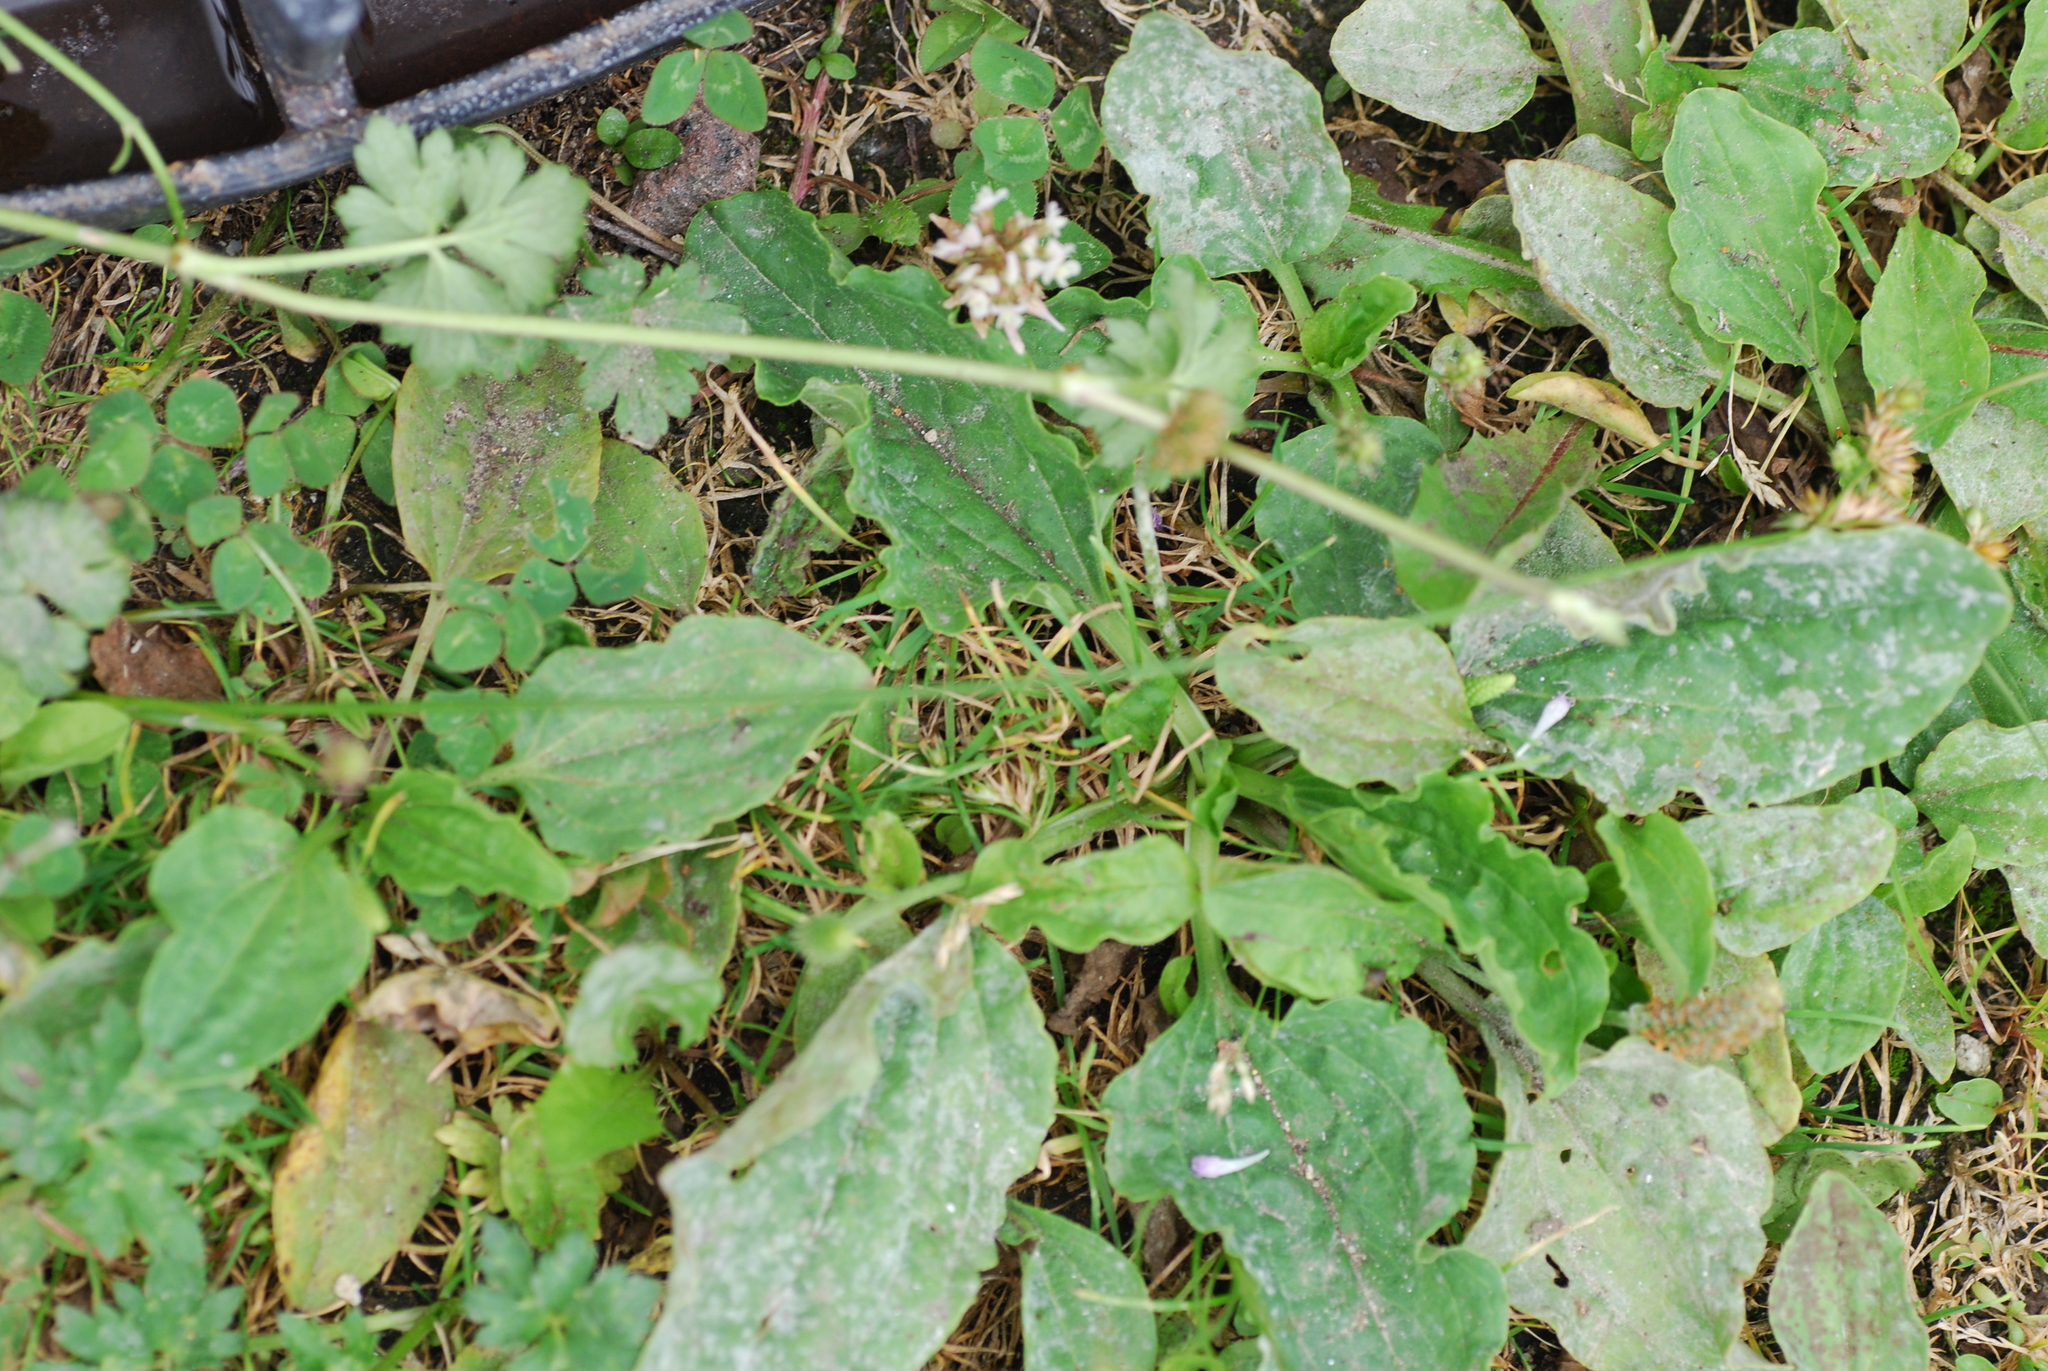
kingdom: Plantae
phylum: Tracheophyta
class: Magnoliopsida
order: Lamiales
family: Plantaginaceae
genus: Plantago
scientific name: Plantago major
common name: Common plantain
